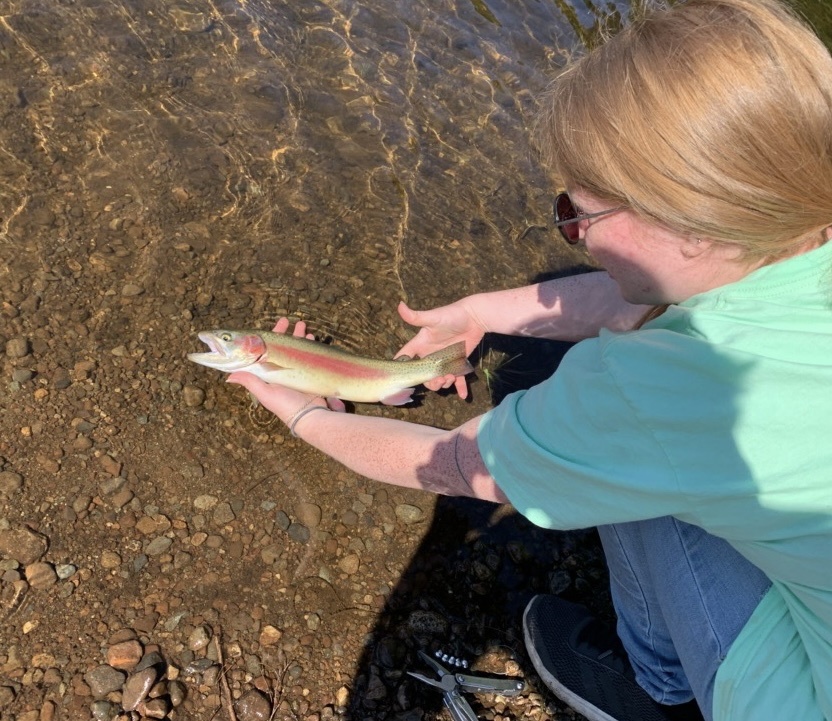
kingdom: Animalia
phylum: Chordata
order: Salmoniformes
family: Salmonidae
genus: Oncorhynchus
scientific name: Oncorhynchus mykiss
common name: Rainbow trout
